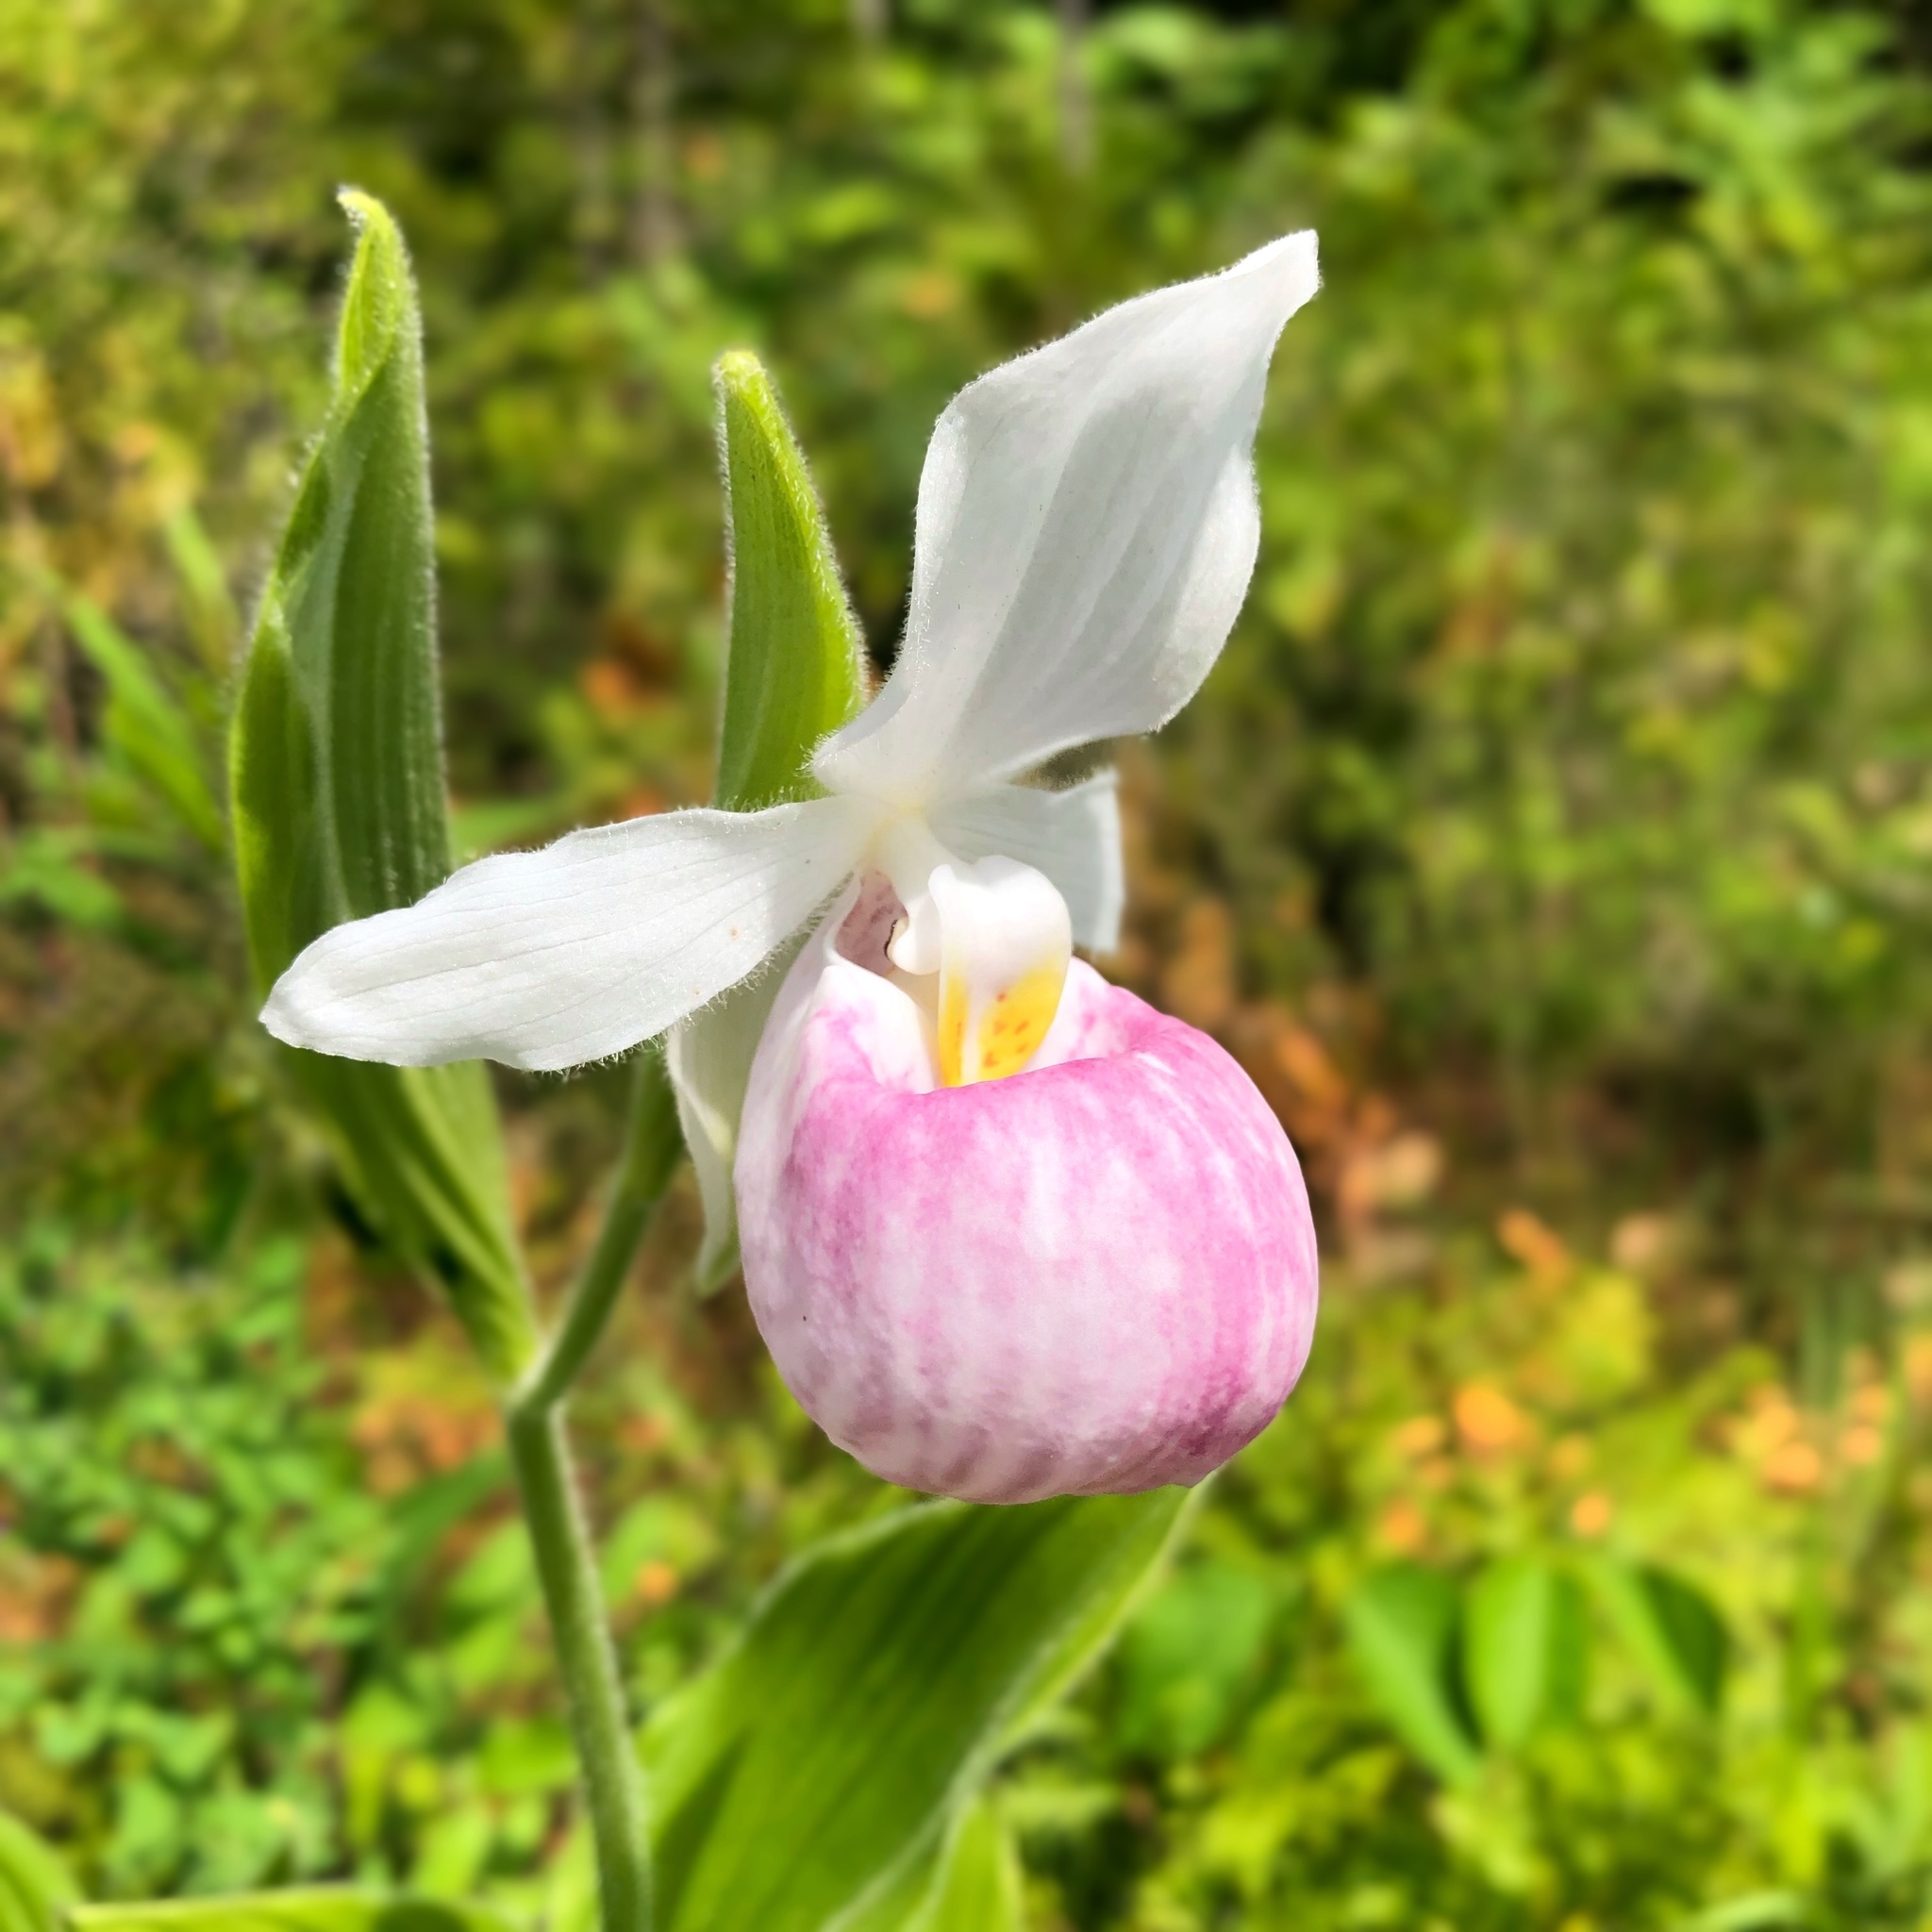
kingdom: Plantae
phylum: Tracheophyta
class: Liliopsida
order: Asparagales
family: Orchidaceae
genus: Cypripedium
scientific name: Cypripedium reginae
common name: Queen lady's-slipper
